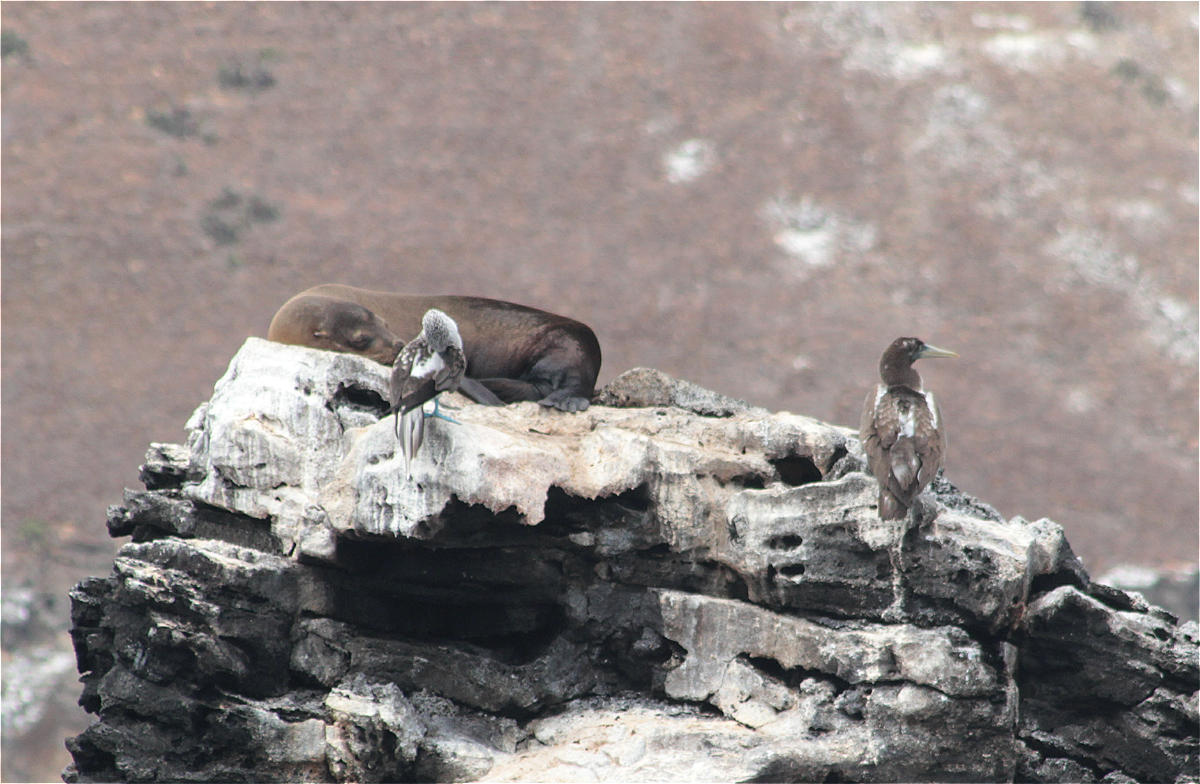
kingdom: Animalia
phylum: Chordata
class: Mammalia
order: Carnivora
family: Otariidae
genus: Zalophus
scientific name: Zalophus wollebaeki
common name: Galapagos sea lion
